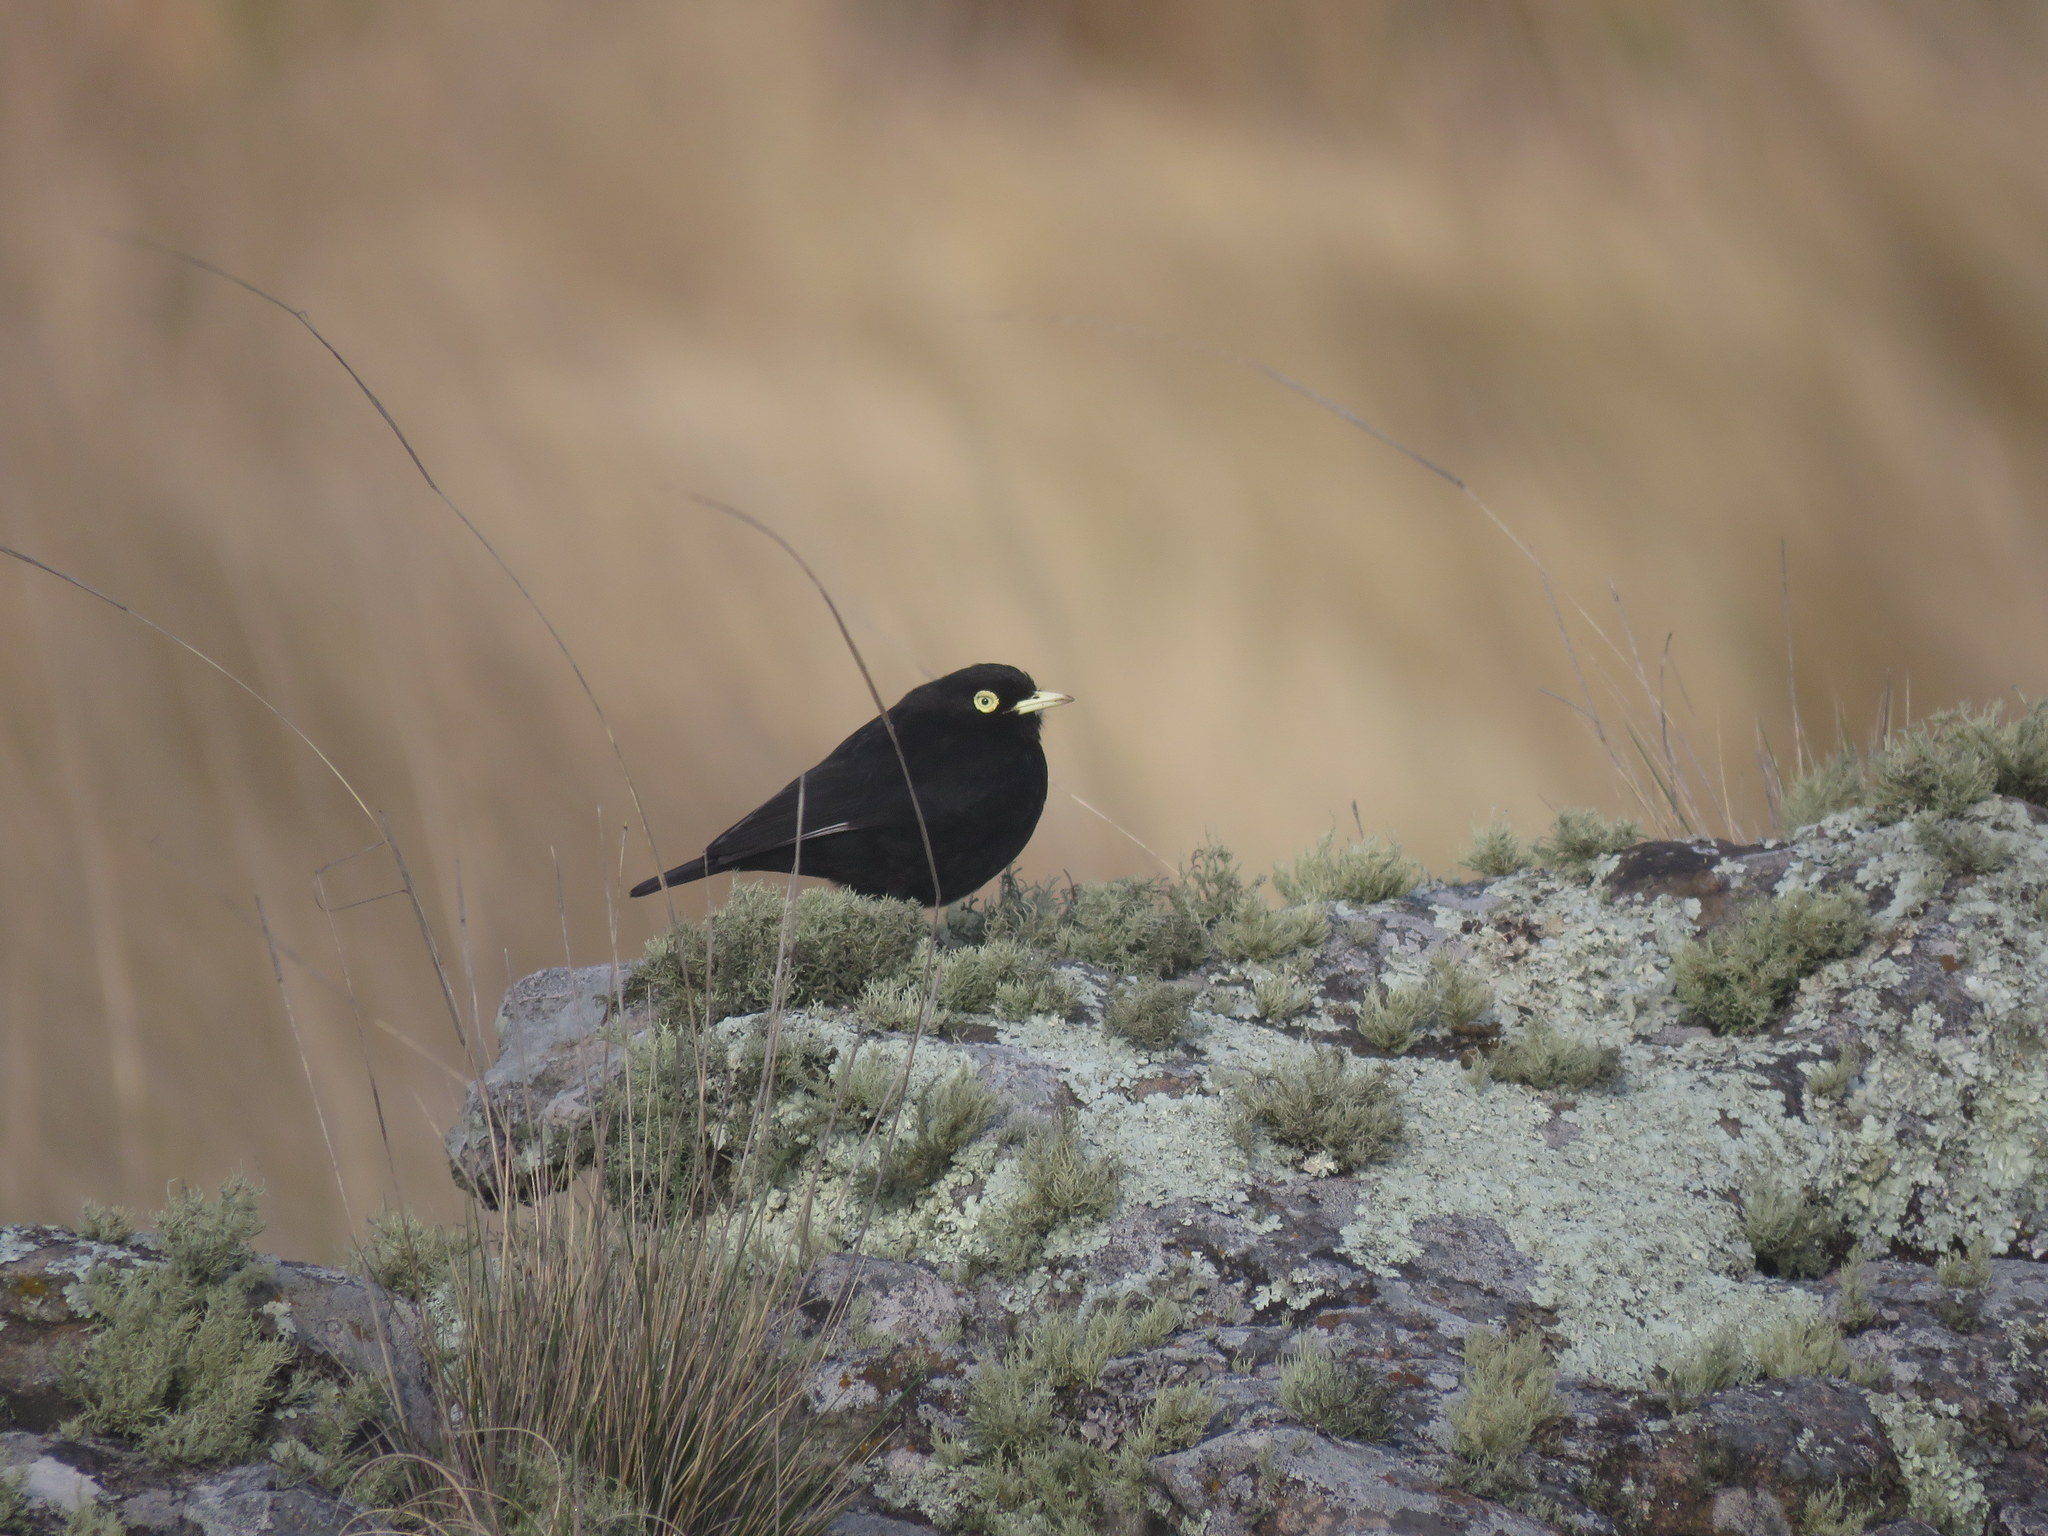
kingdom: Animalia
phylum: Chordata
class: Aves
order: Passeriformes
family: Tyrannidae
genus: Hymenops
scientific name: Hymenops perspicillatus
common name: Spectacled tyrant
